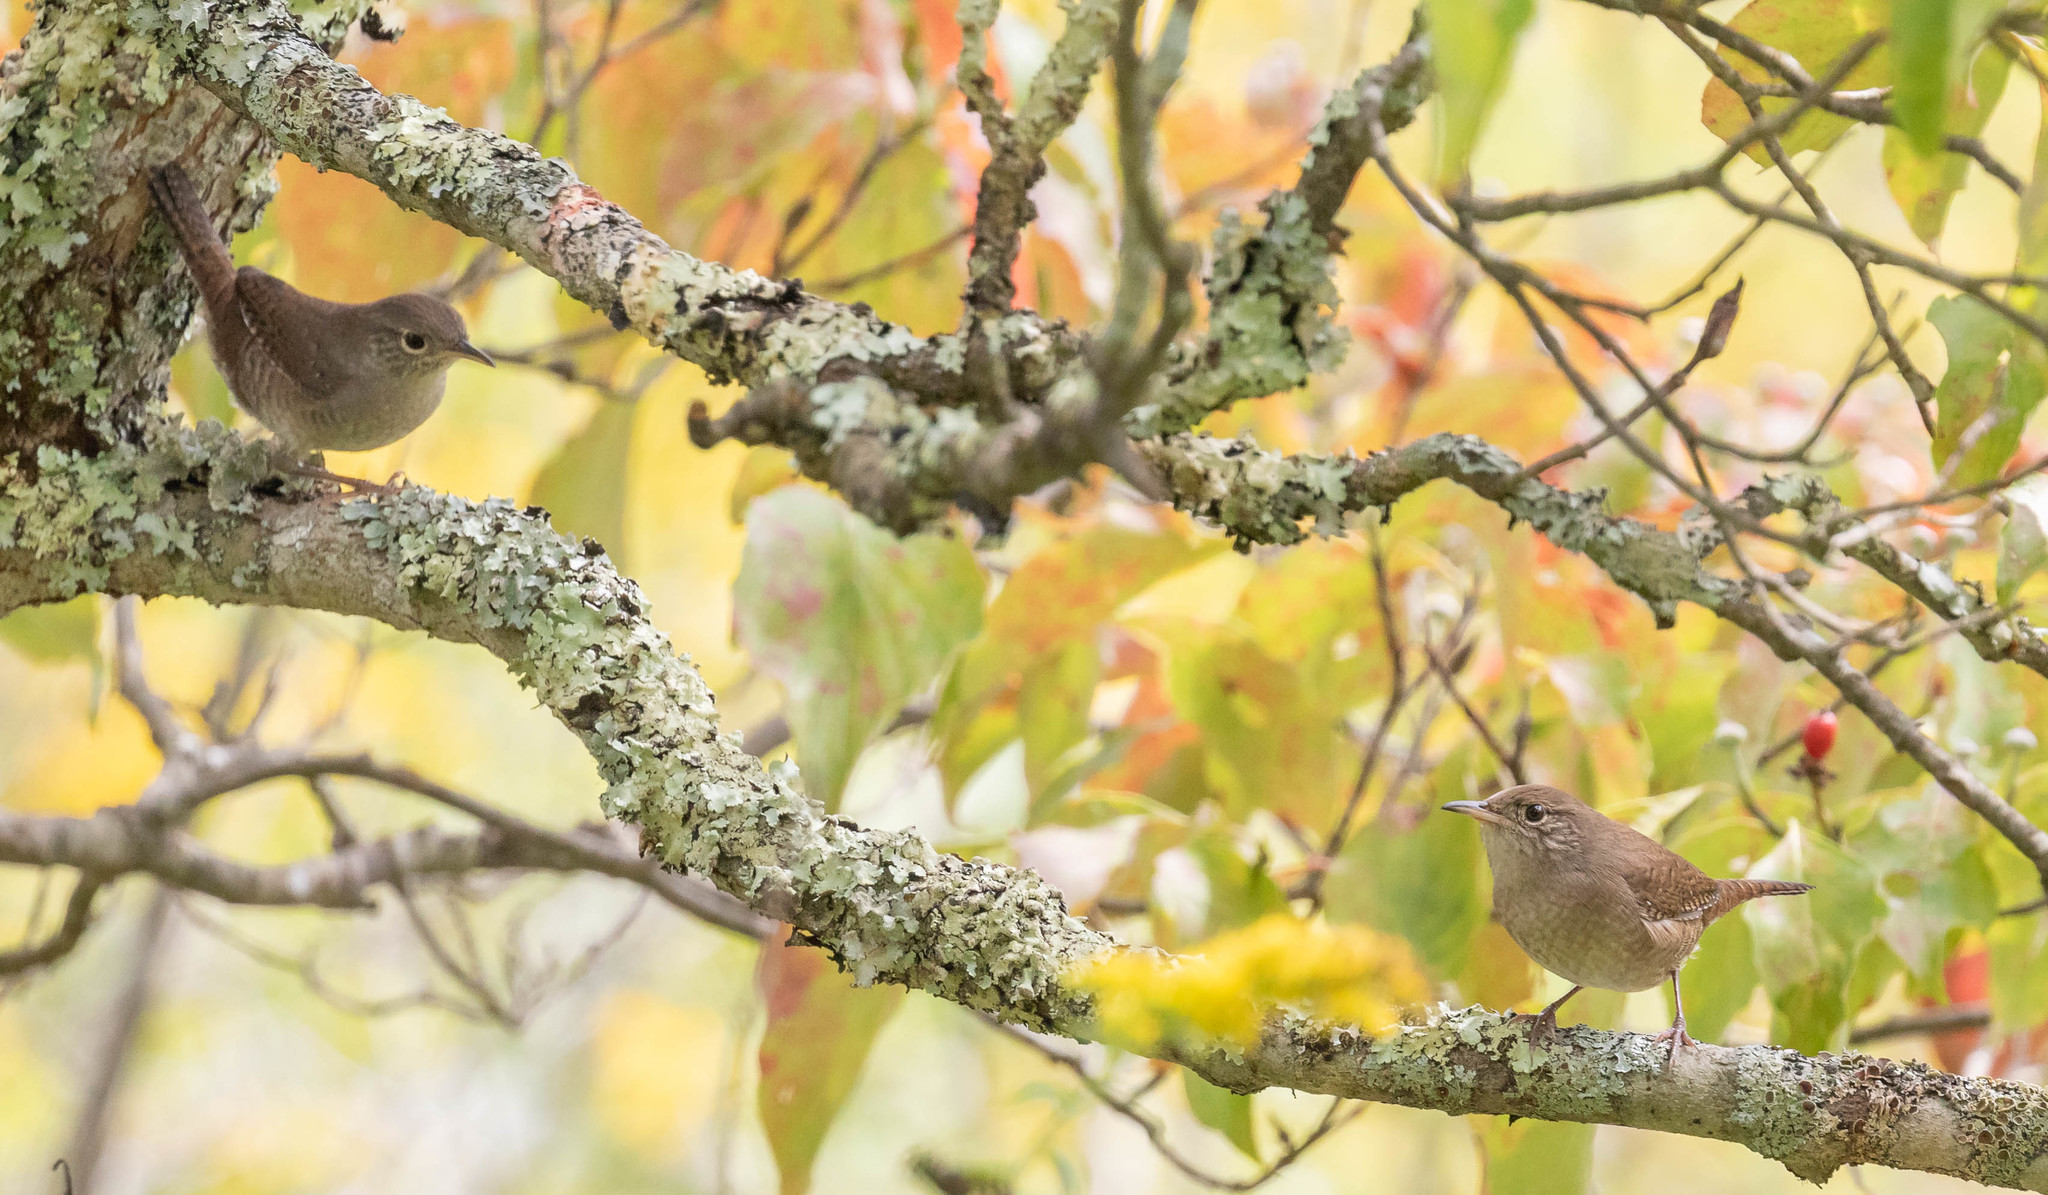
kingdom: Animalia
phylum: Chordata
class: Aves
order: Passeriformes
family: Troglodytidae
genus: Troglodytes
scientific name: Troglodytes aedon
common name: House wren
